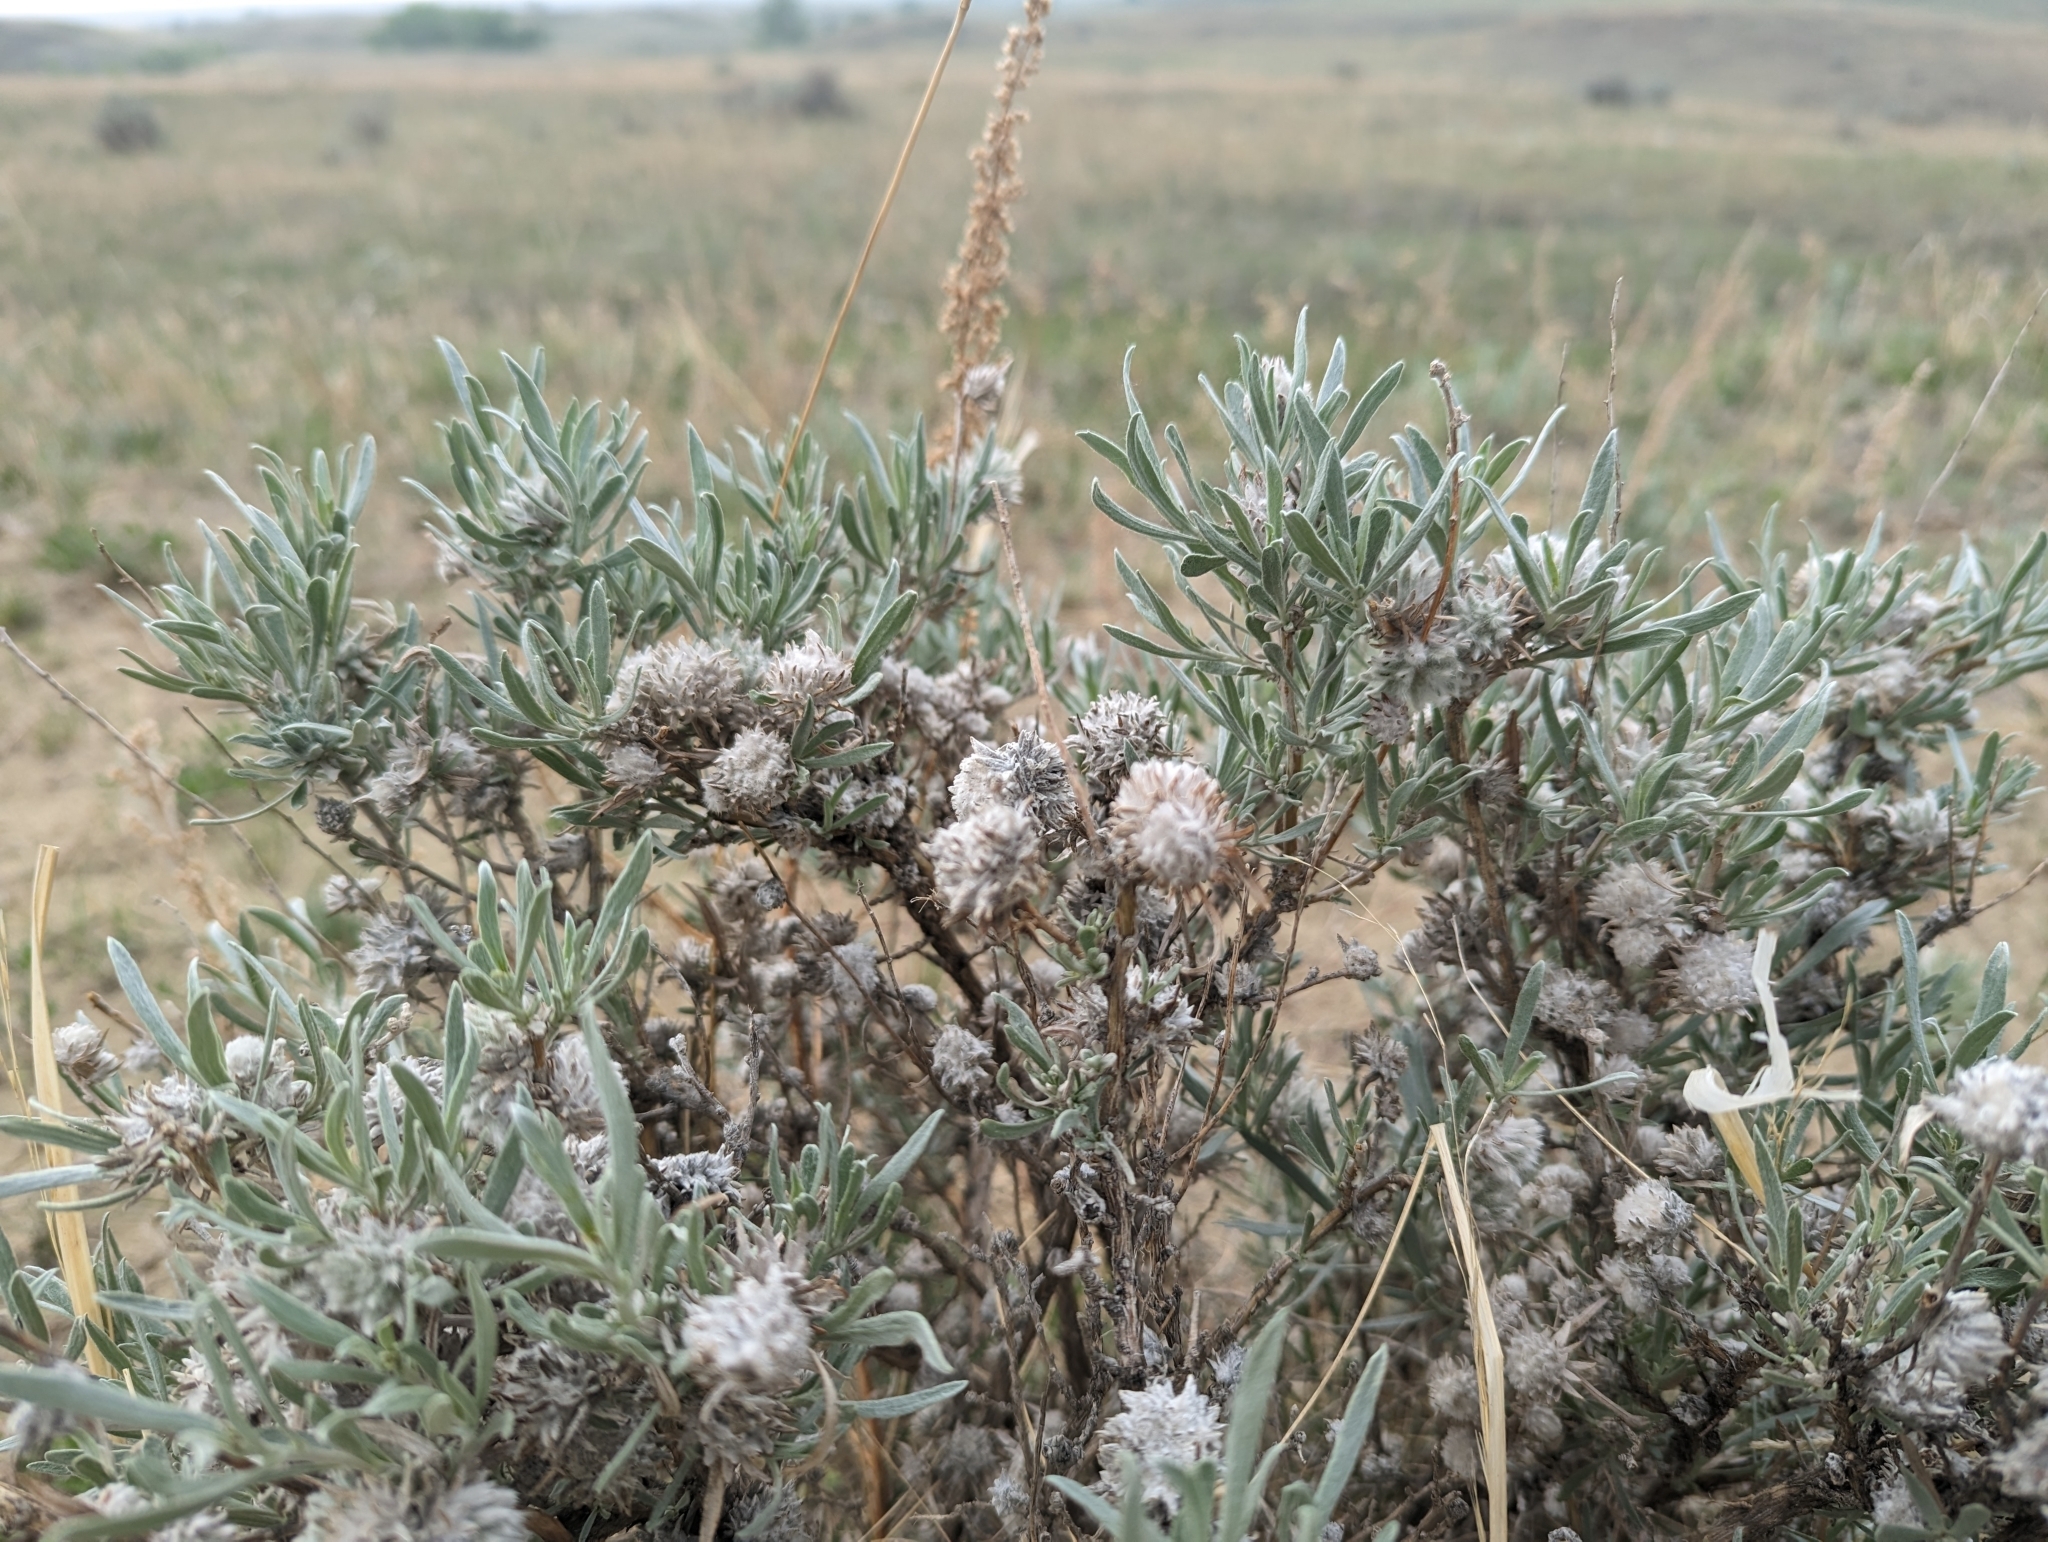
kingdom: Plantae
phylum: Tracheophyta
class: Magnoliopsida
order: Caryophyllales
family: Amaranthaceae
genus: Krascheninnikovia
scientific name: Krascheninnikovia lanata
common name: Winterfat
